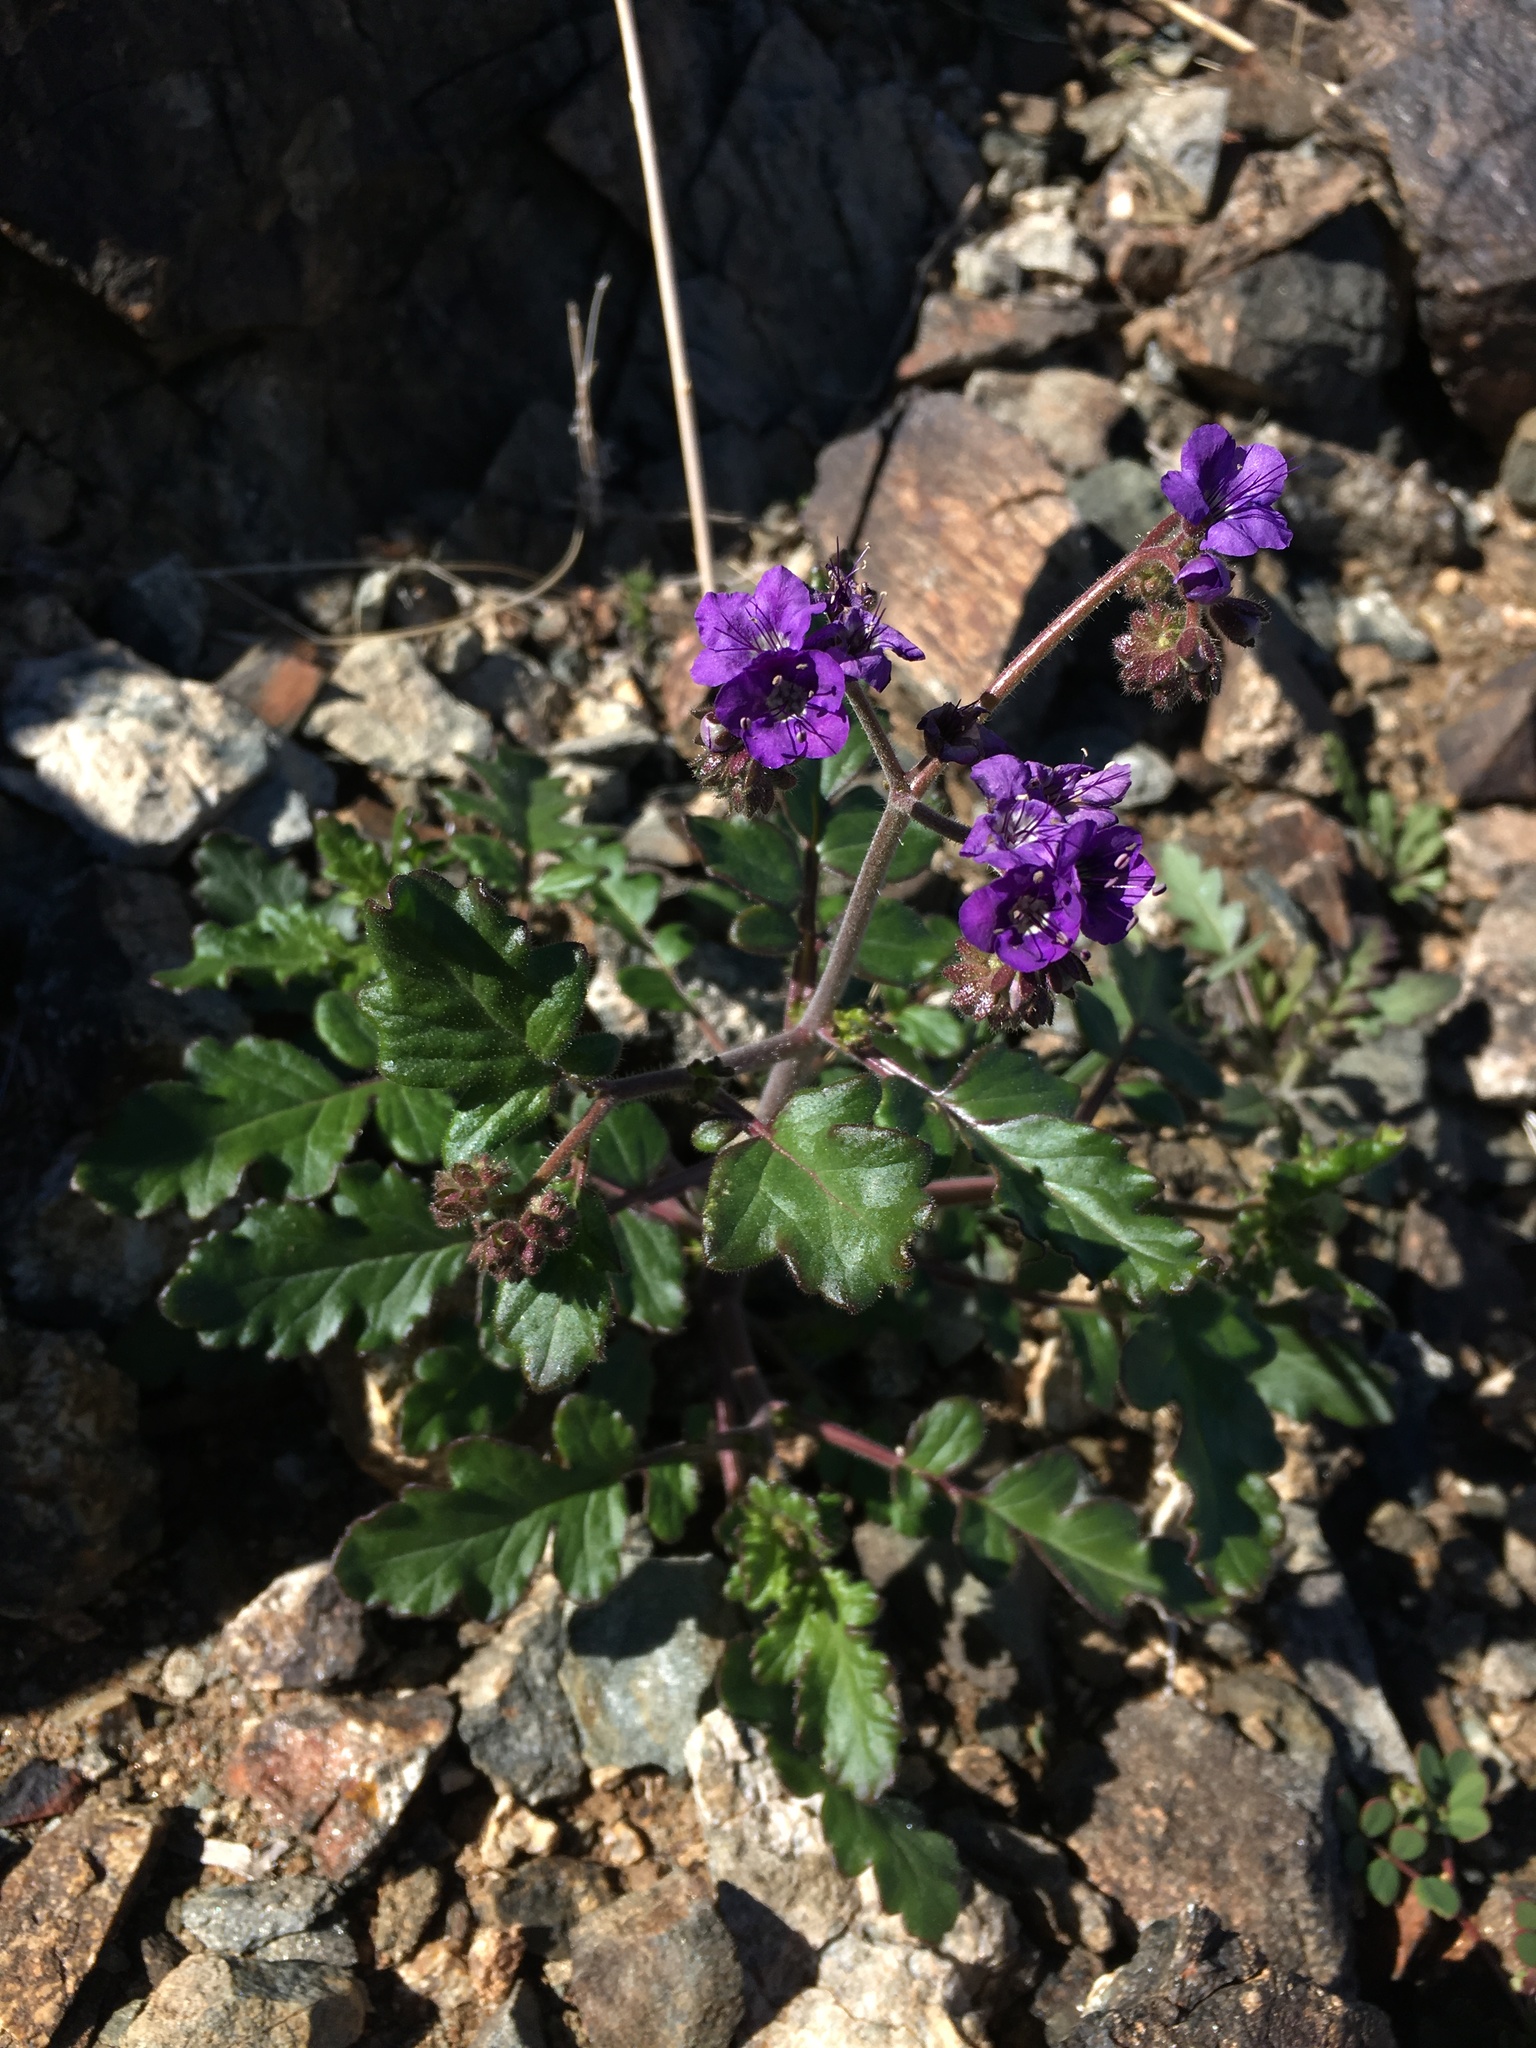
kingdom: Plantae
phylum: Tracheophyta
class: Magnoliopsida
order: Boraginales
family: Hydrophyllaceae
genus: Phacelia
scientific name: Phacelia crenulata
